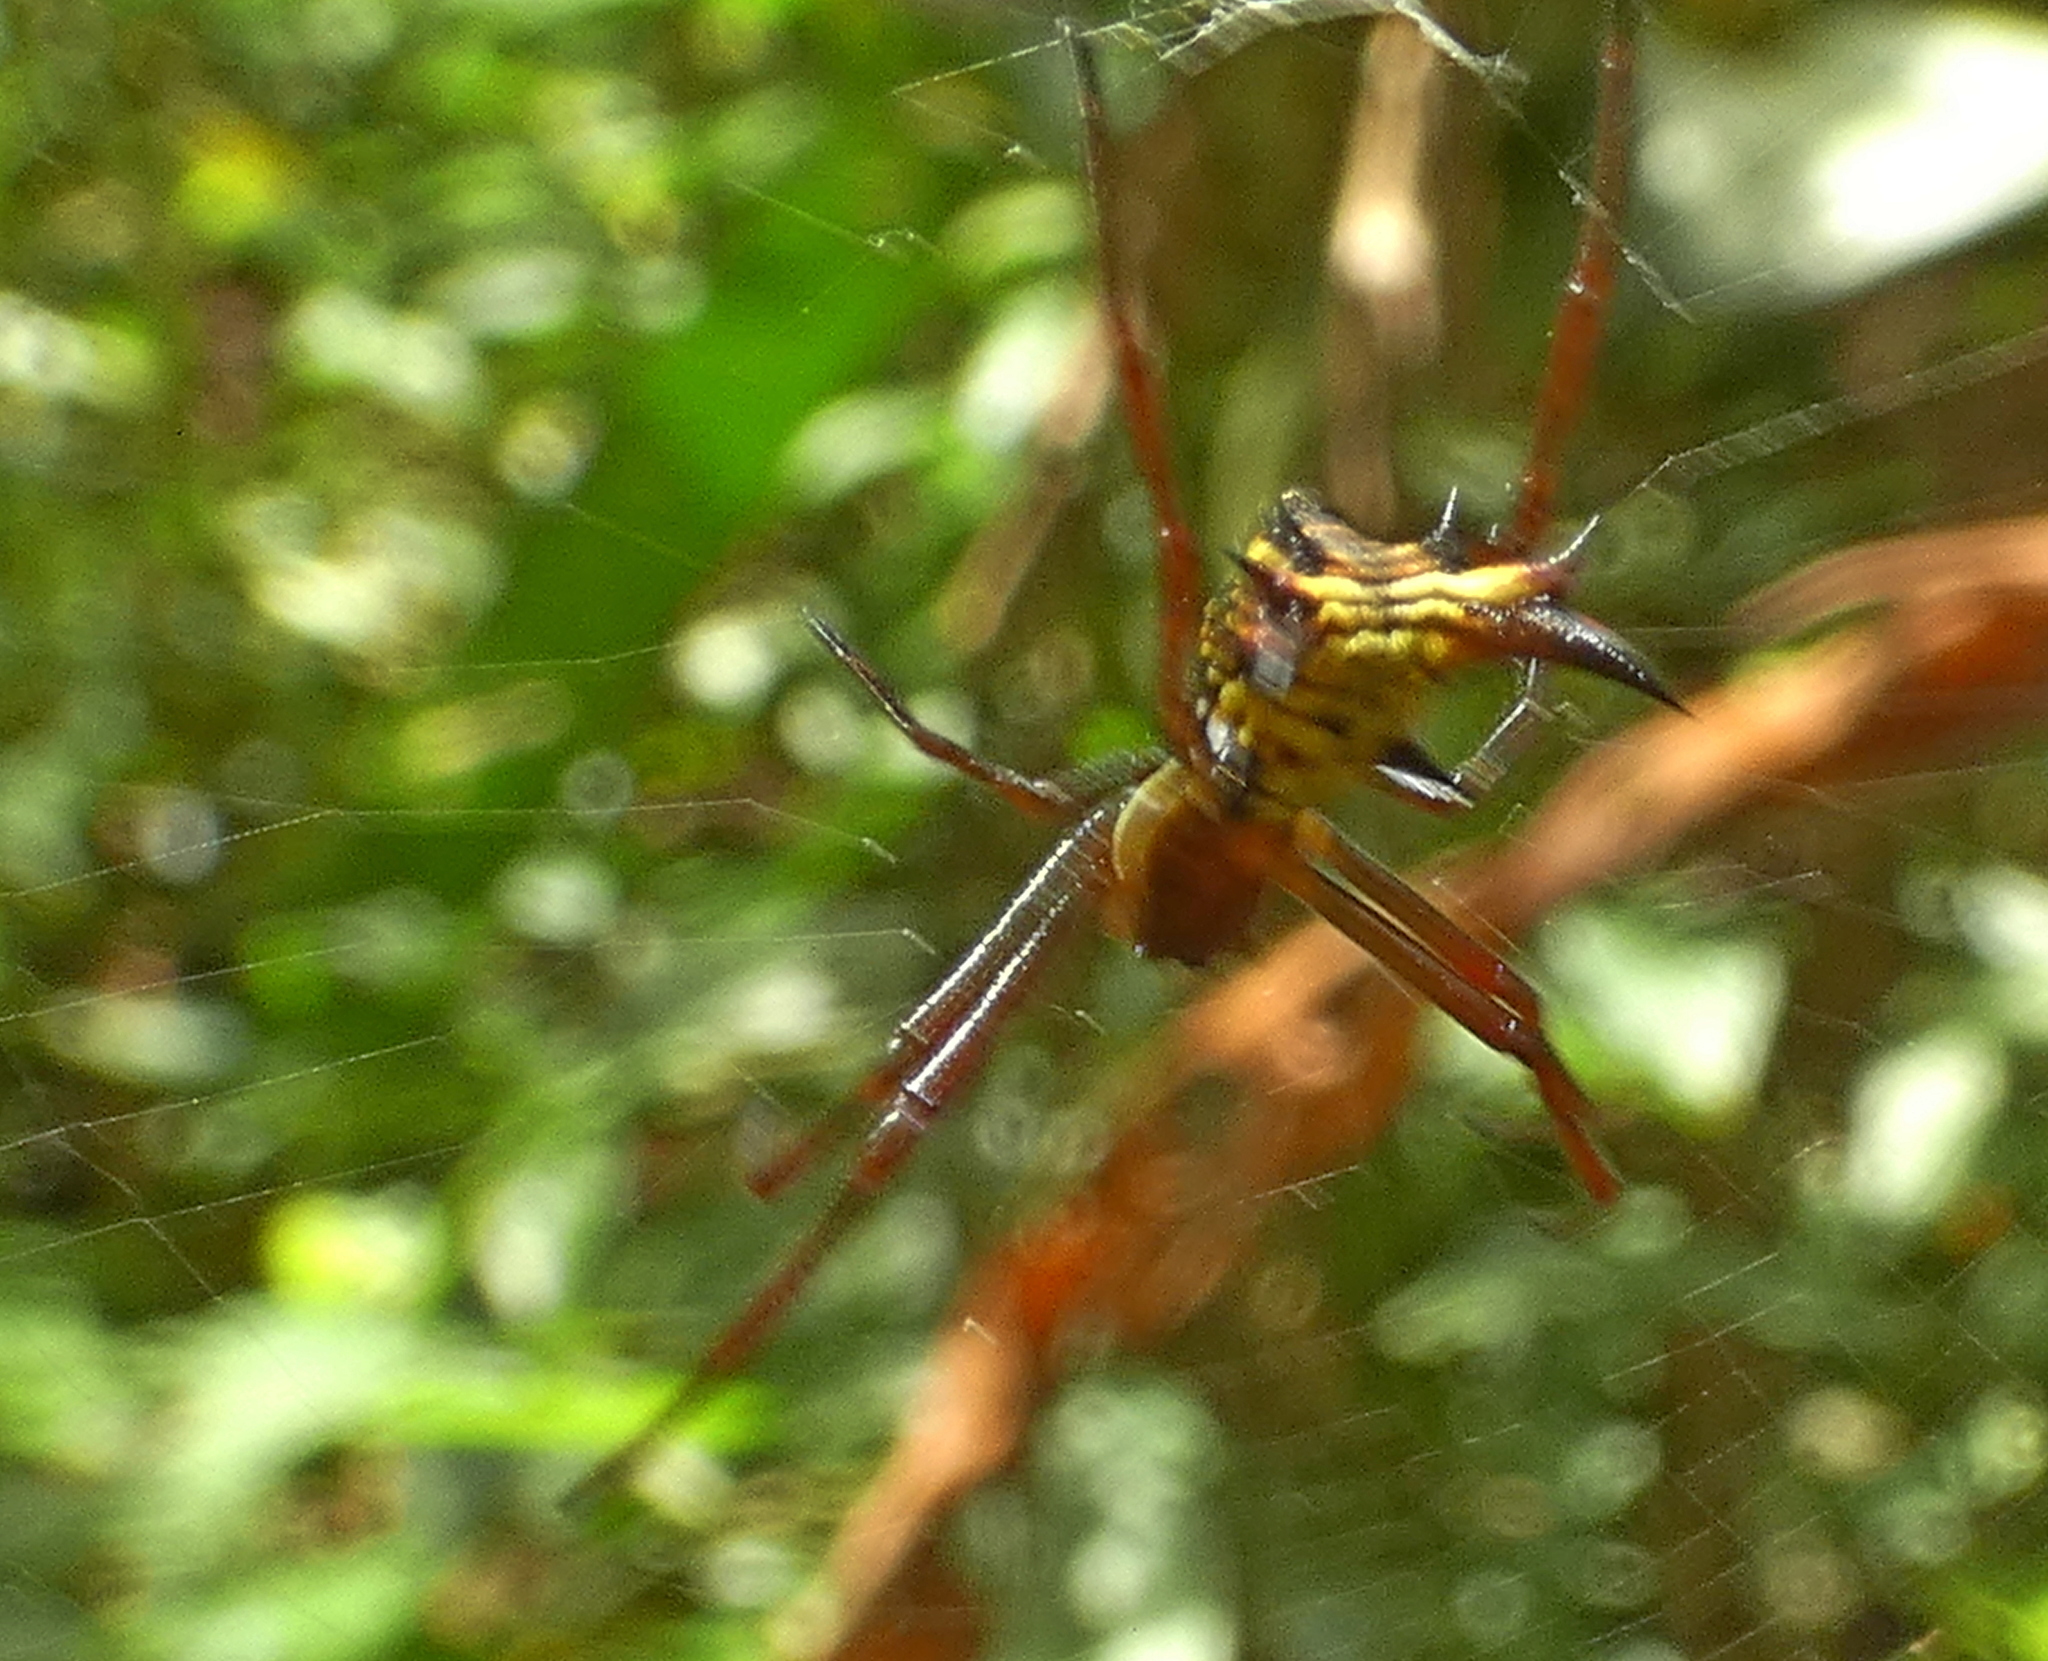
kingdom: Animalia
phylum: Arthropoda
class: Arachnida
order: Araneae
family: Araneidae
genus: Micrathena
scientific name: Micrathena fissispina
